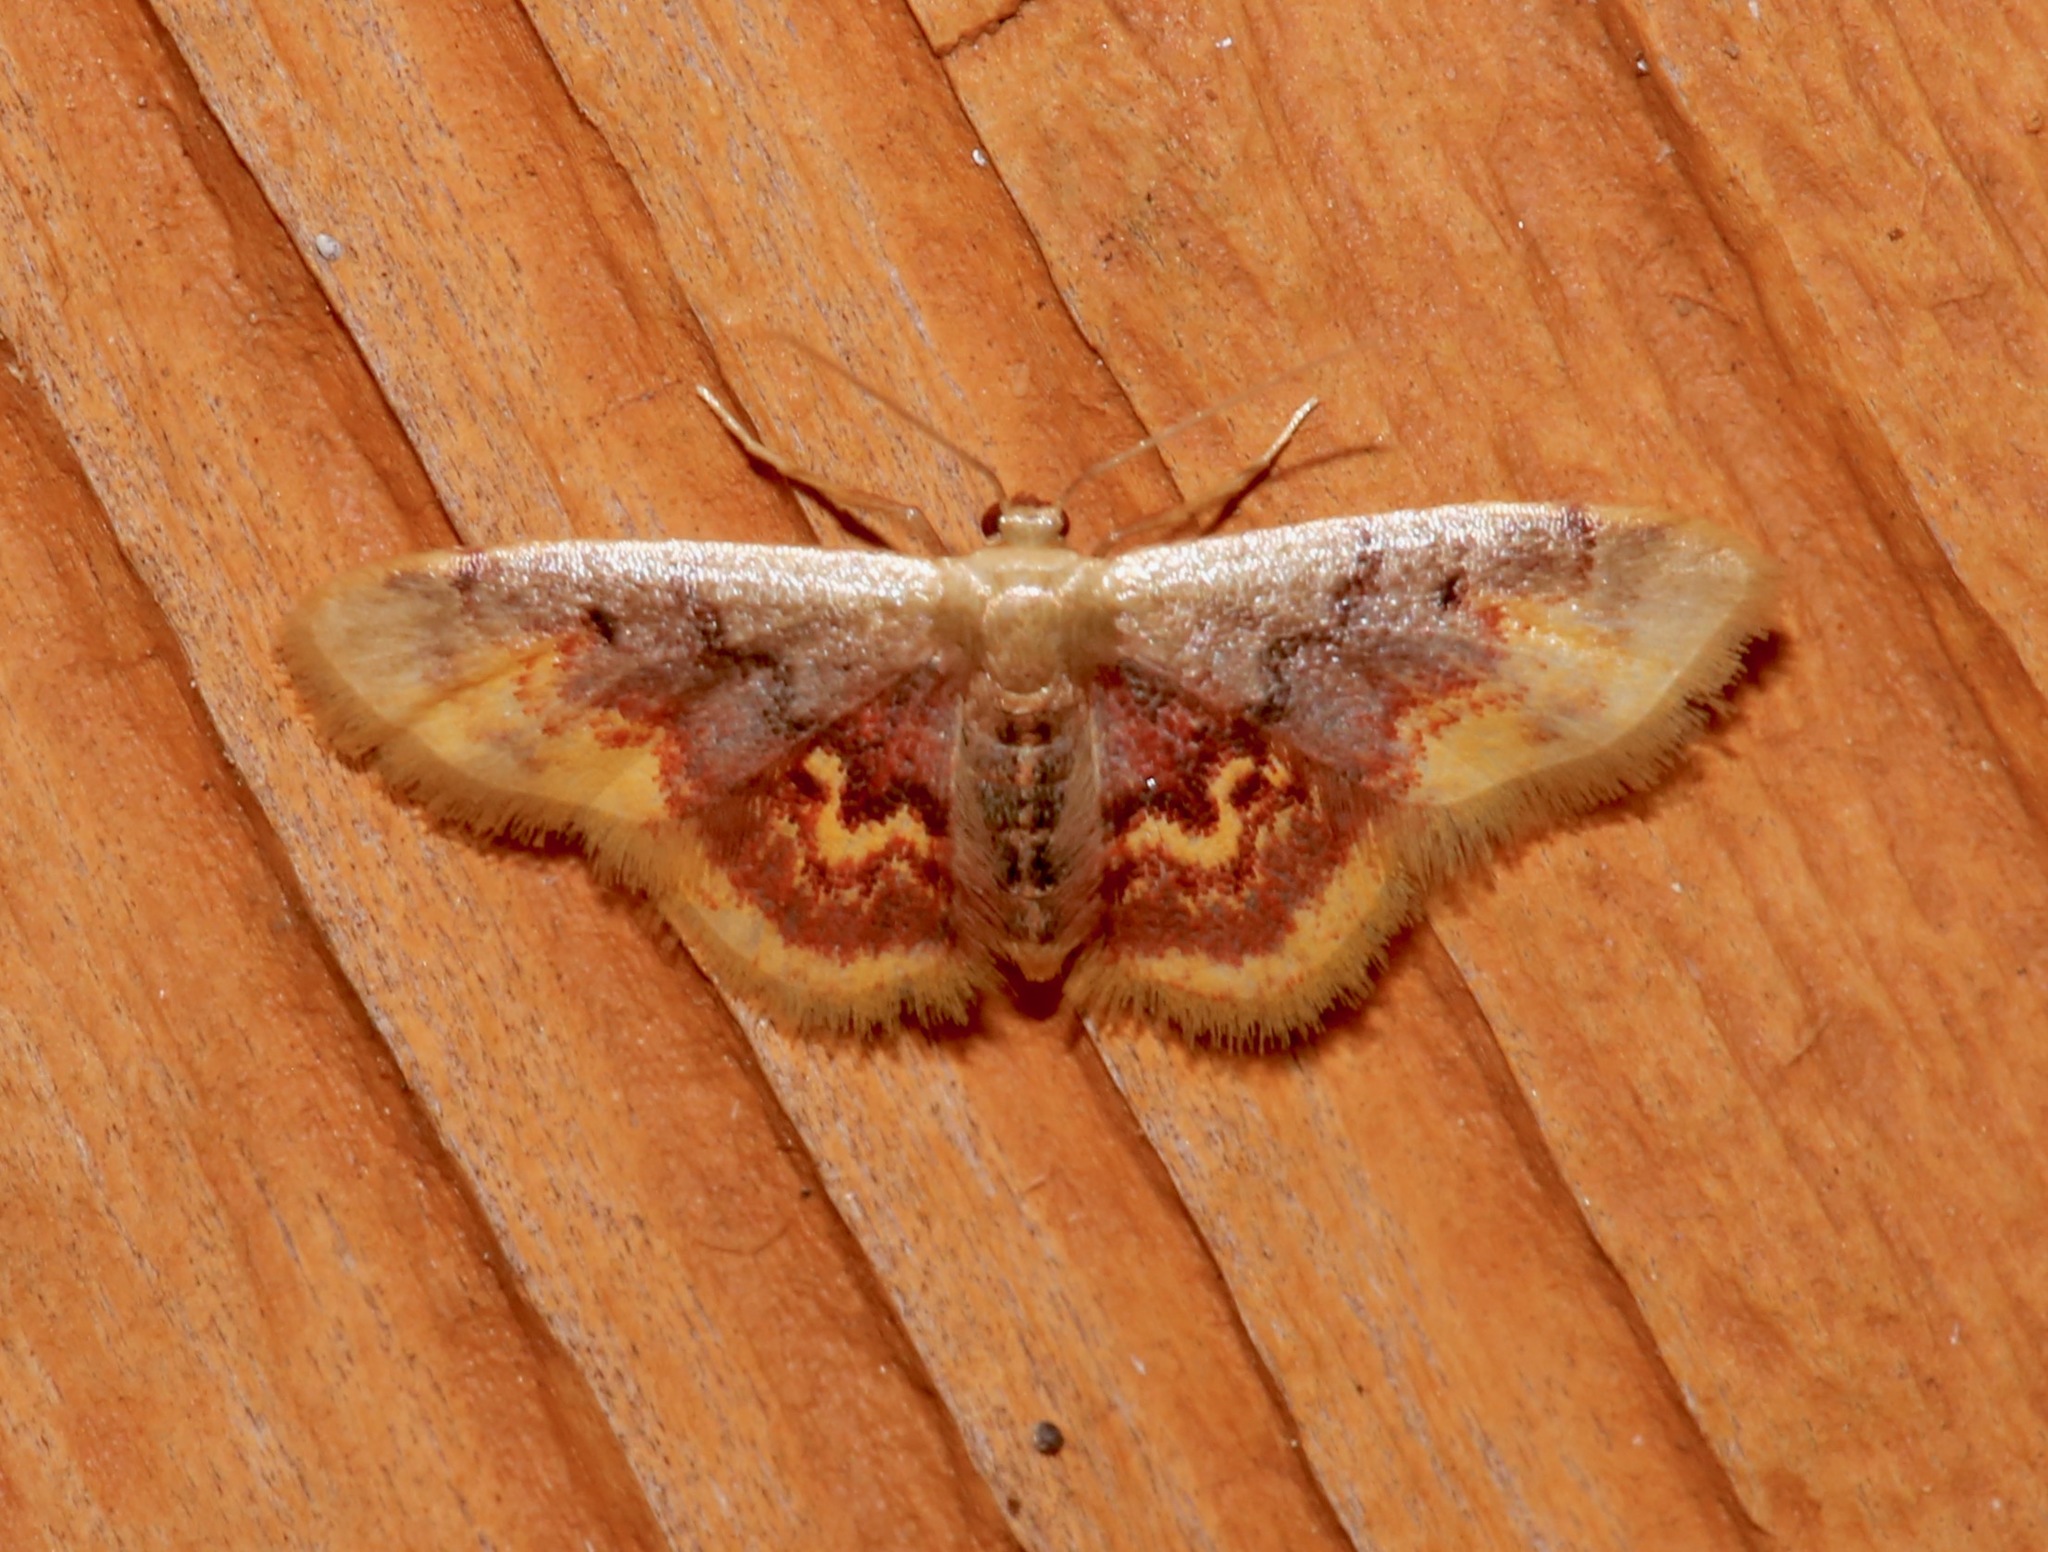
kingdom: Animalia
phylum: Arthropoda
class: Insecta
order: Lepidoptera
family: Geometridae
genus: Idaea
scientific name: Idaea scintillularia
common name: Diminutive wave
